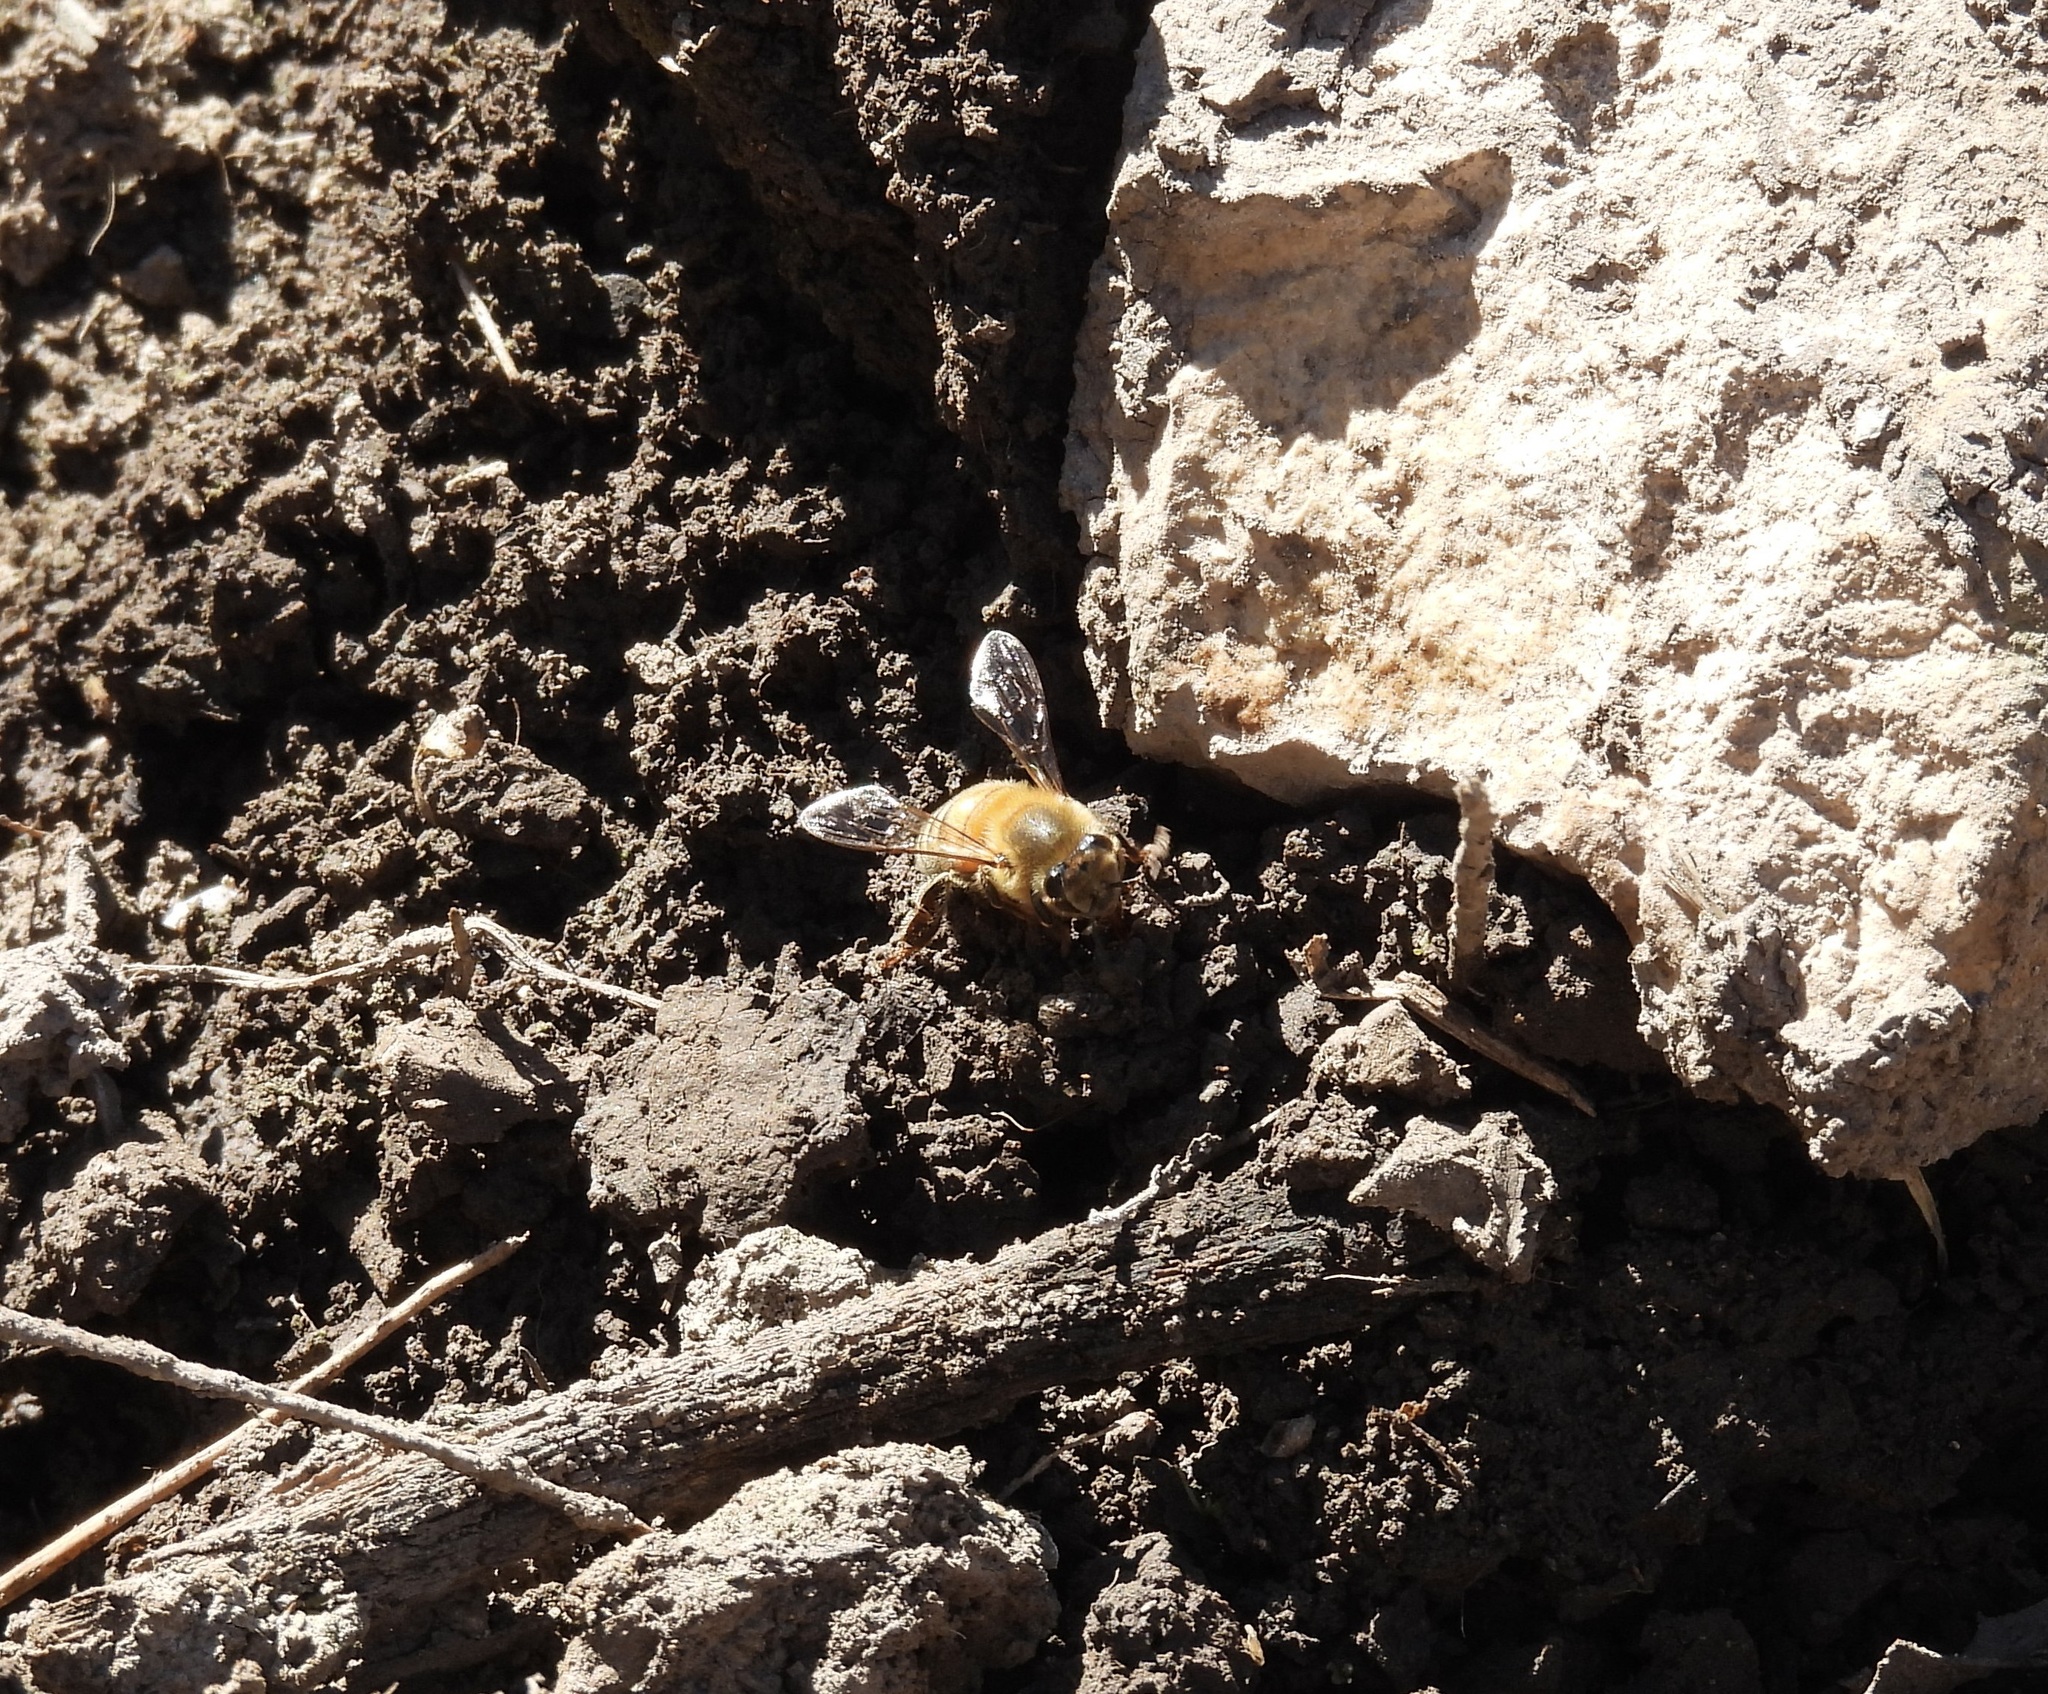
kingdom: Animalia
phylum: Arthropoda
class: Insecta
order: Hymenoptera
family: Apidae
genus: Apis
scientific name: Apis mellifera
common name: Honey bee
